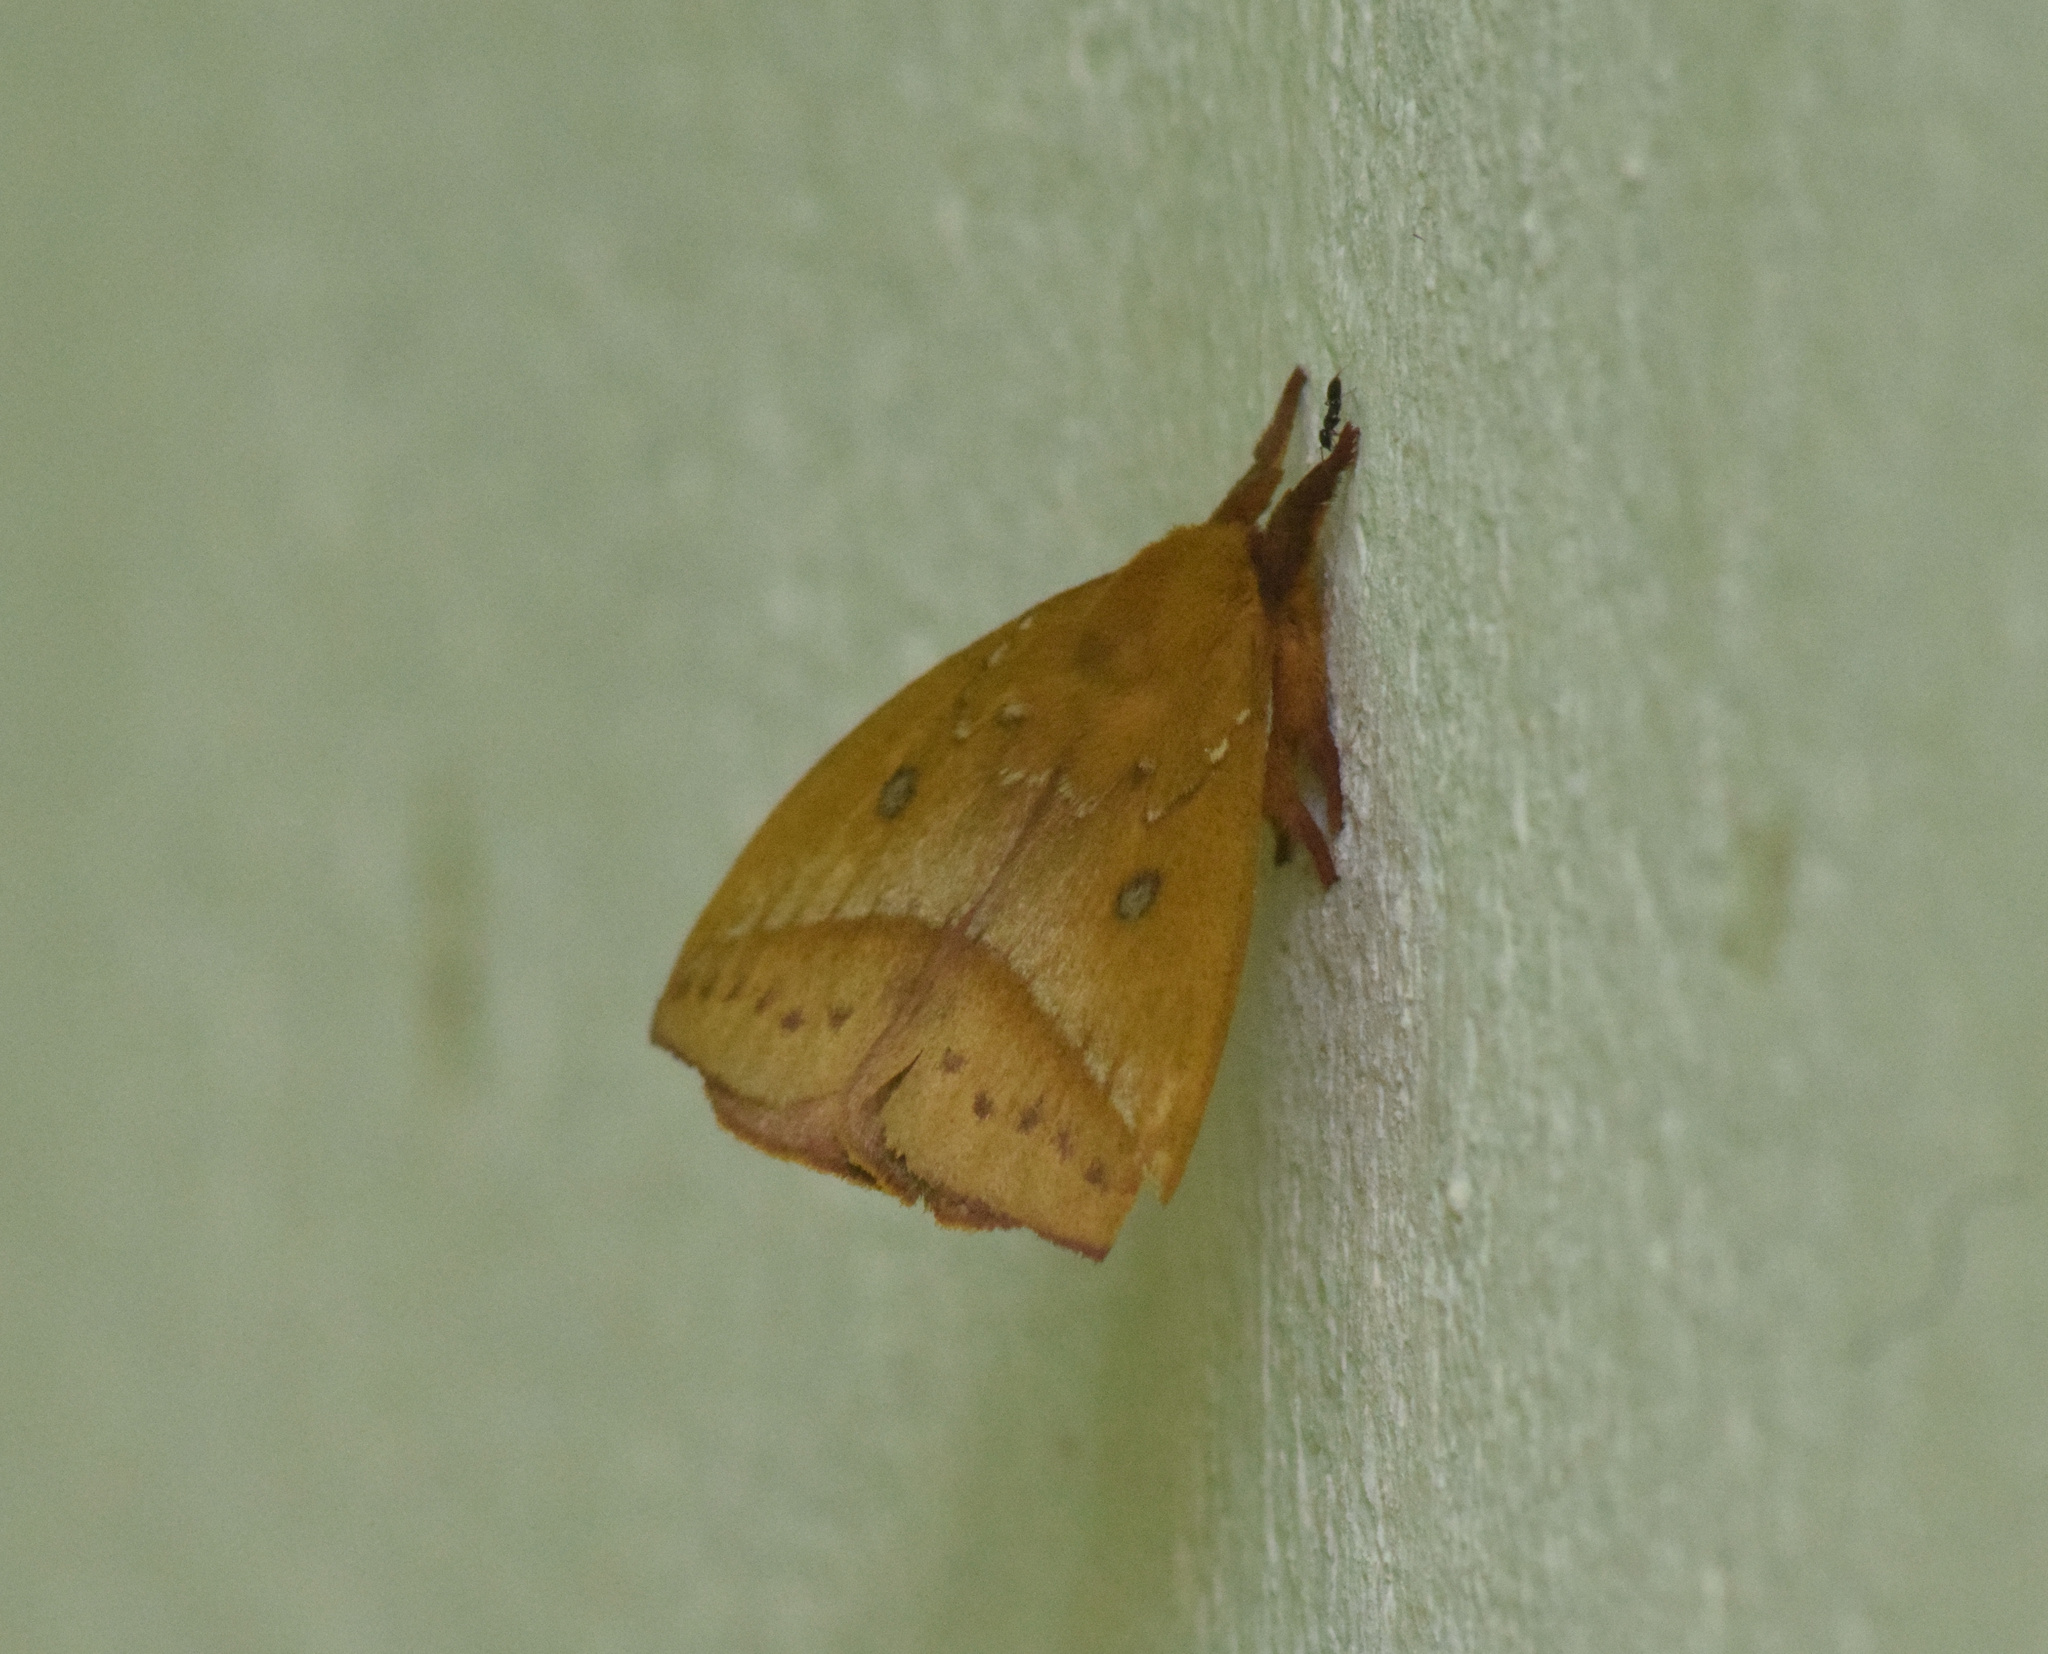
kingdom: Animalia
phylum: Arthropoda
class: Insecta
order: Lepidoptera
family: Saturniidae
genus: Catacantha
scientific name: Catacantha ferruginea
